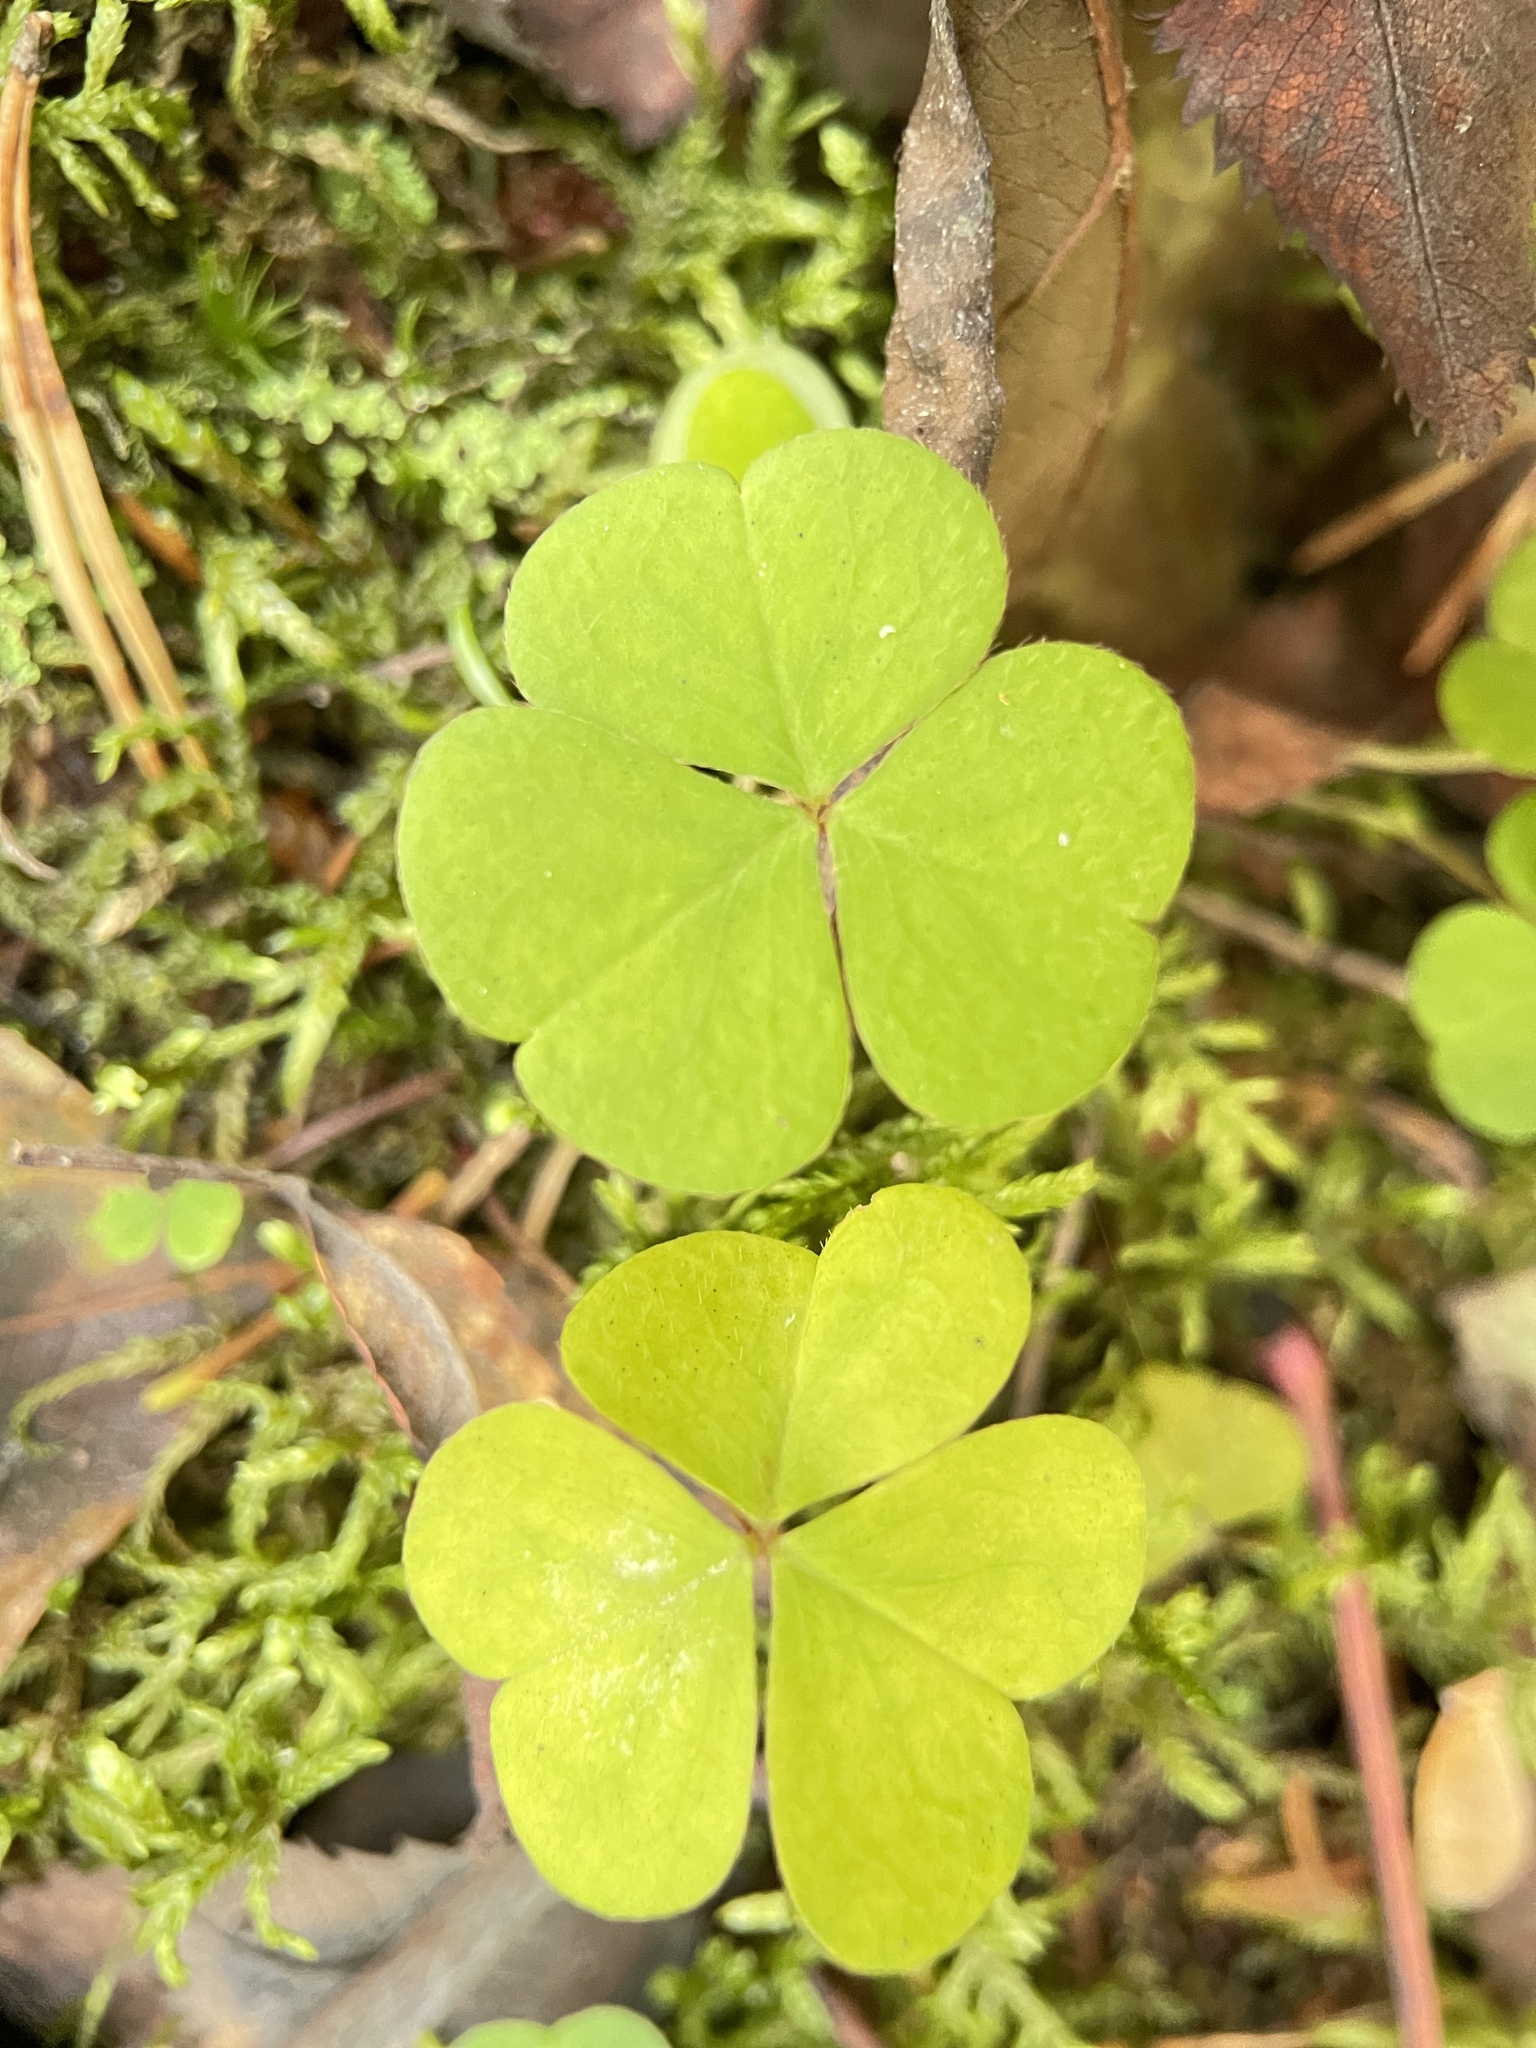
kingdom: Plantae
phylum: Tracheophyta
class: Magnoliopsida
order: Oxalidales
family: Oxalidaceae
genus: Oxalis
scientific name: Oxalis acetosella
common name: Wood-sorrel
